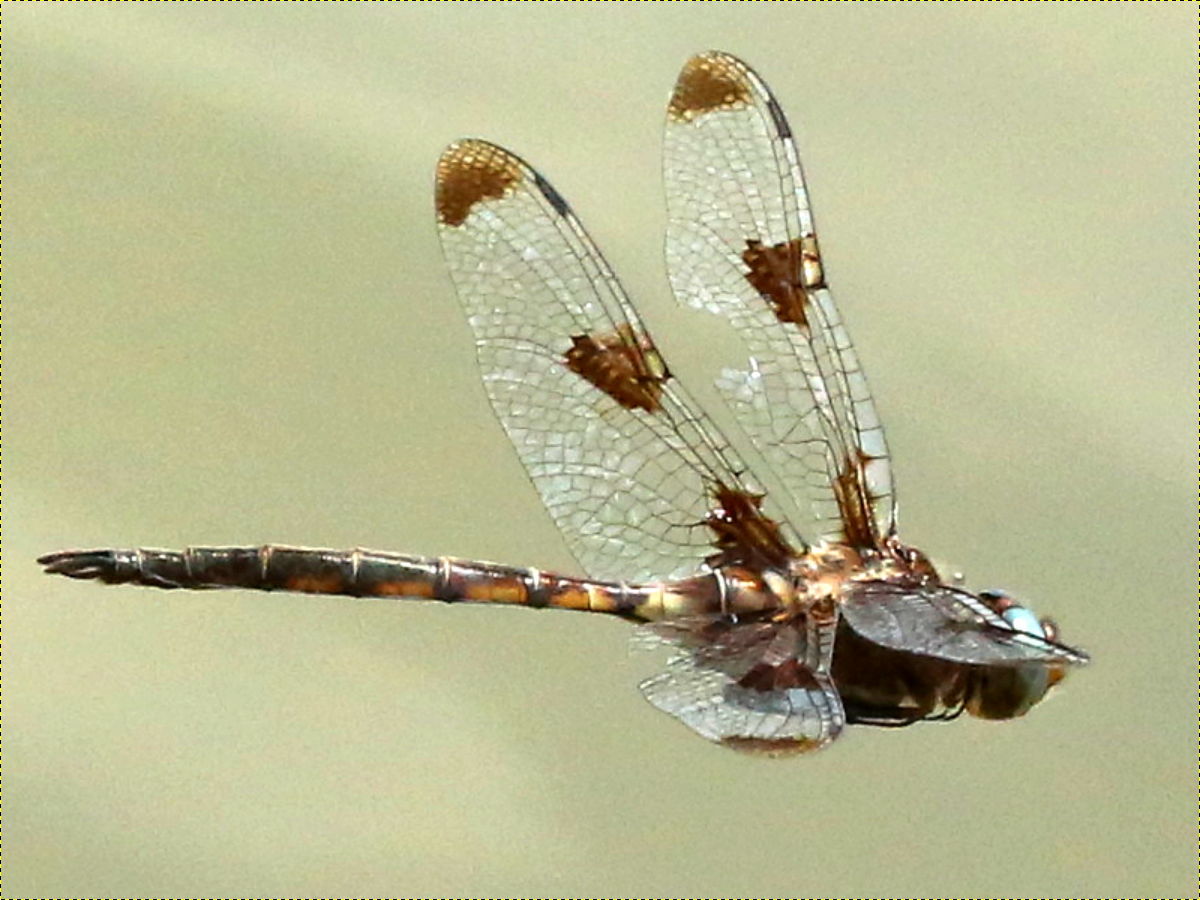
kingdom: Animalia
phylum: Arthropoda
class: Insecta
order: Odonata
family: Corduliidae
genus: Epitheca
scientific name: Epitheca princeps
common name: Prince baskettail
